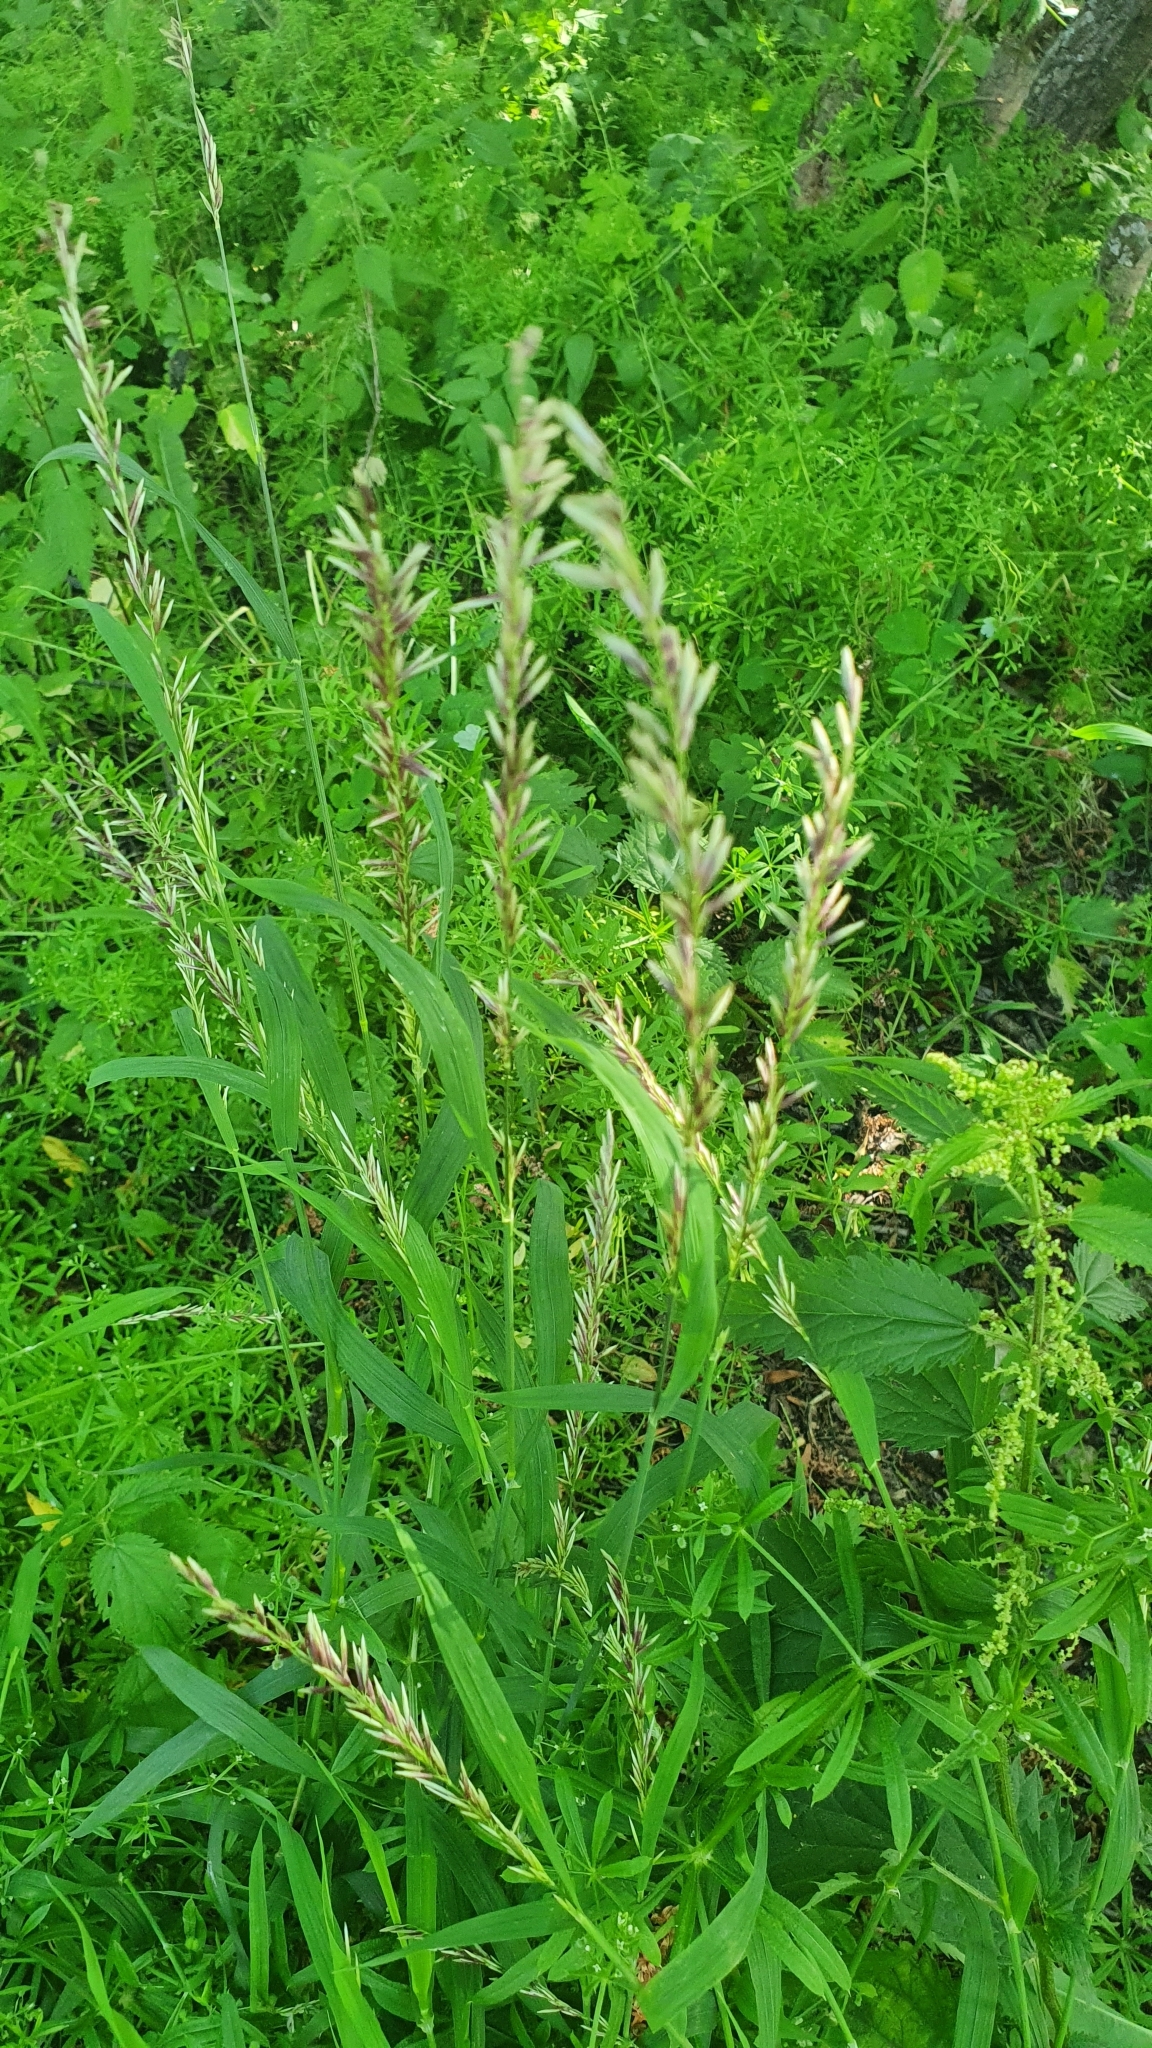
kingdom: Plantae
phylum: Tracheophyta
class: Liliopsida
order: Poales
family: Poaceae
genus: Melica
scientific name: Melica altissima
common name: Siberian melicgrass
